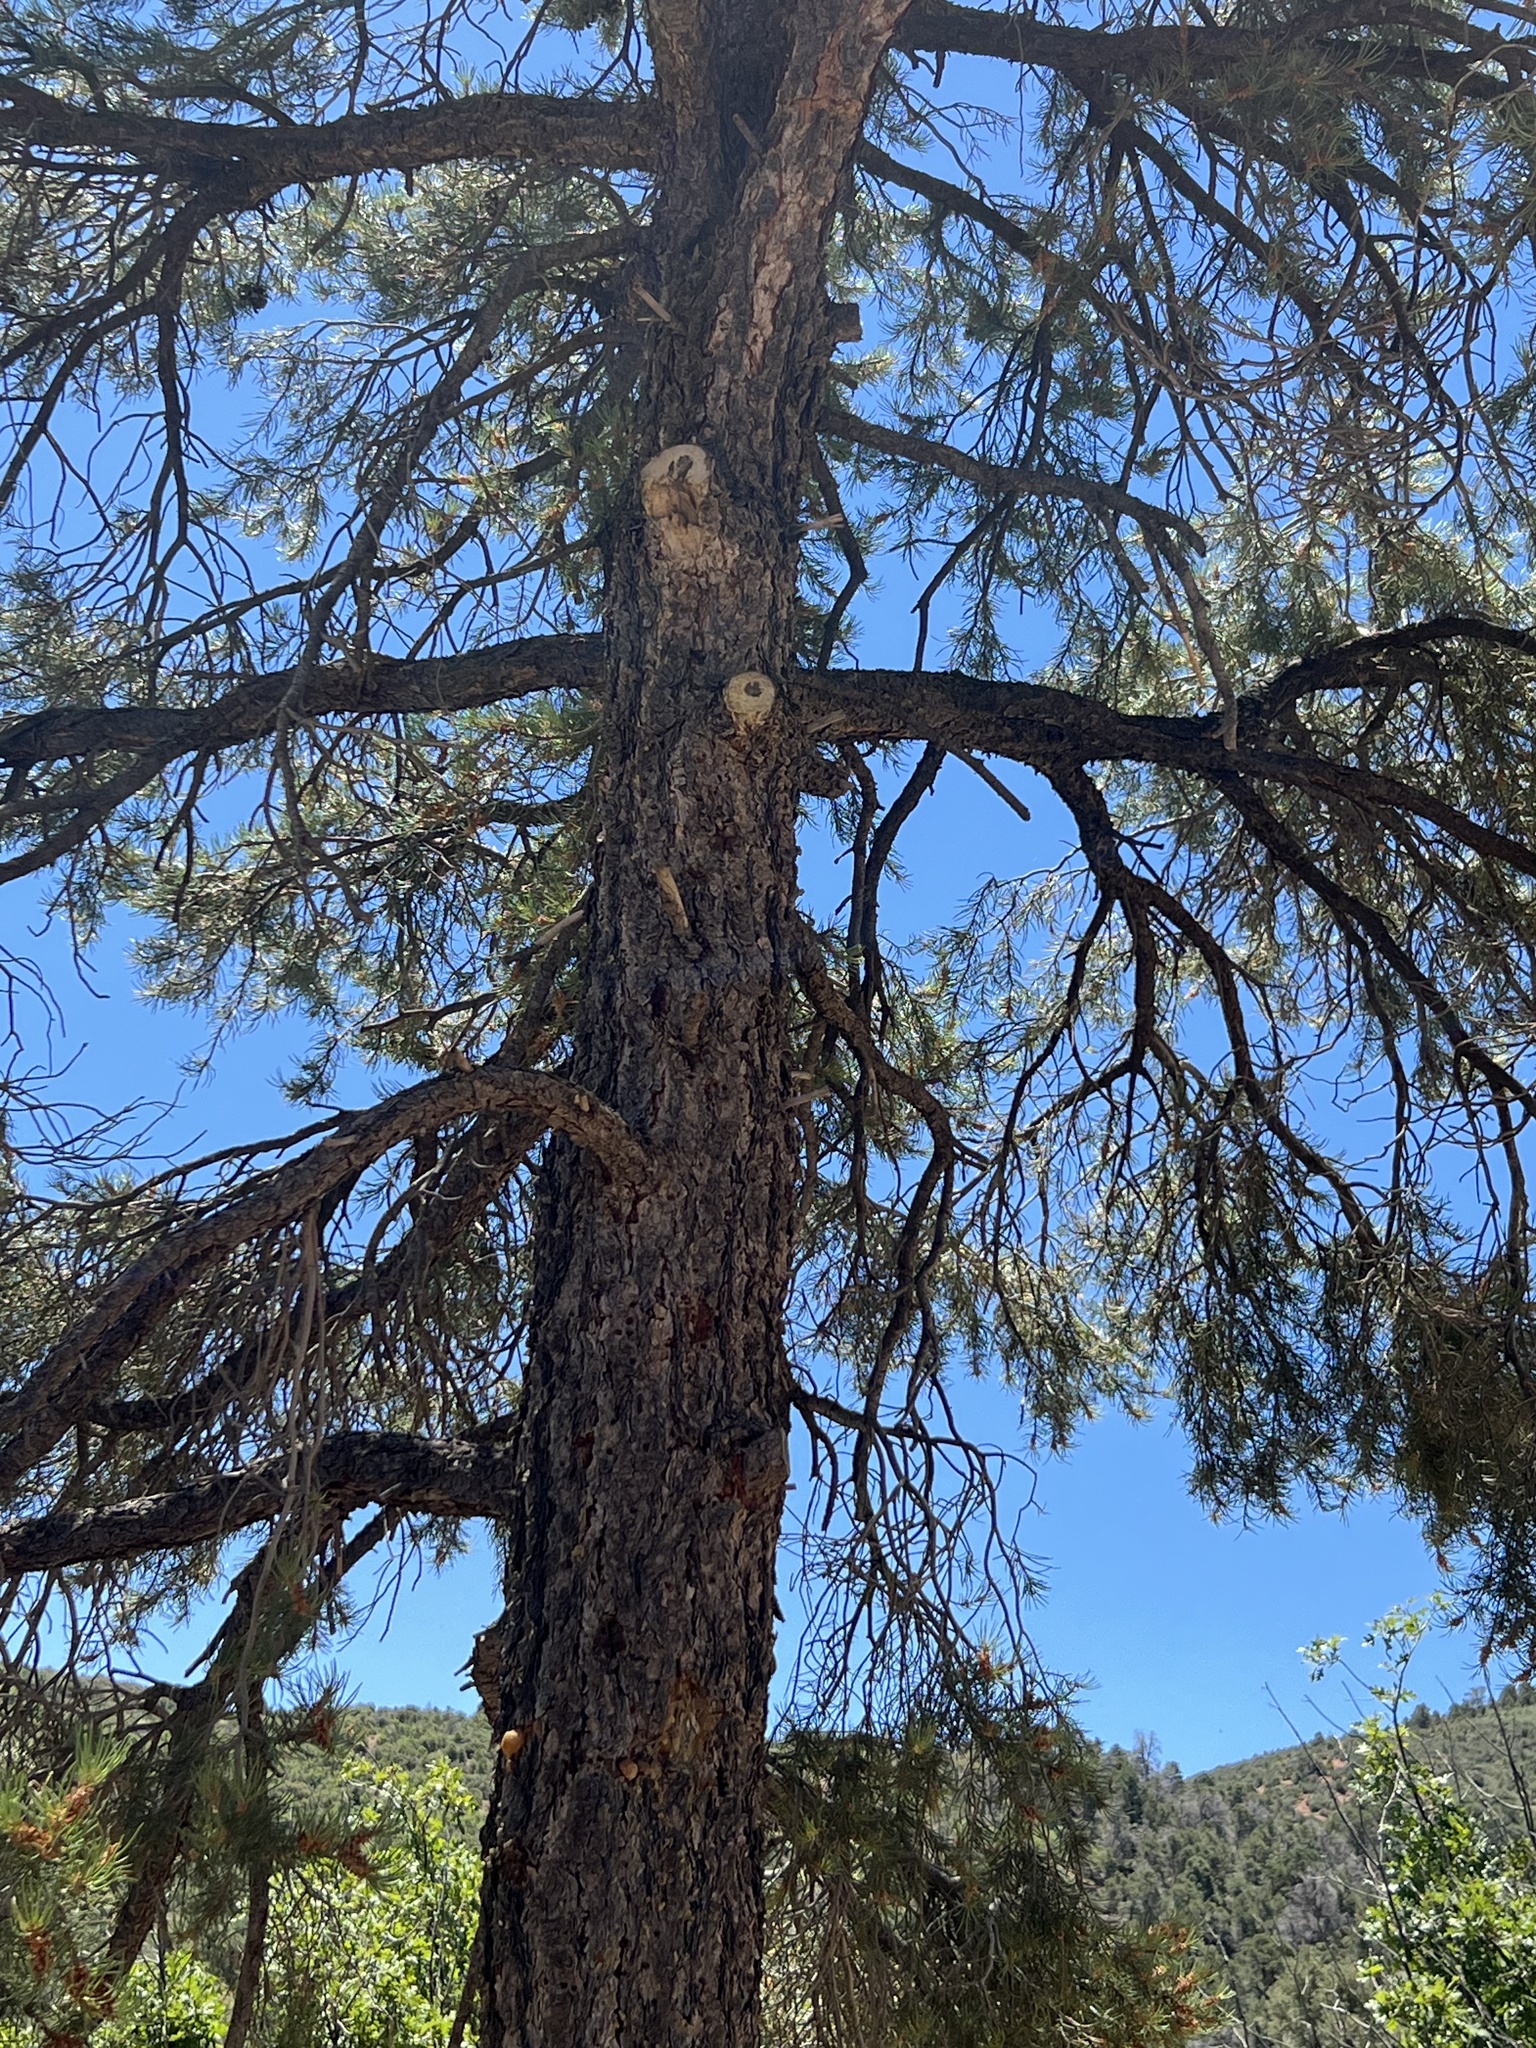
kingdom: Plantae
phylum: Tracheophyta
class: Pinopsida
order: Pinales
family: Pinaceae
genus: Pinus
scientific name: Pinus monophylla
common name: One-leaved nut pine
